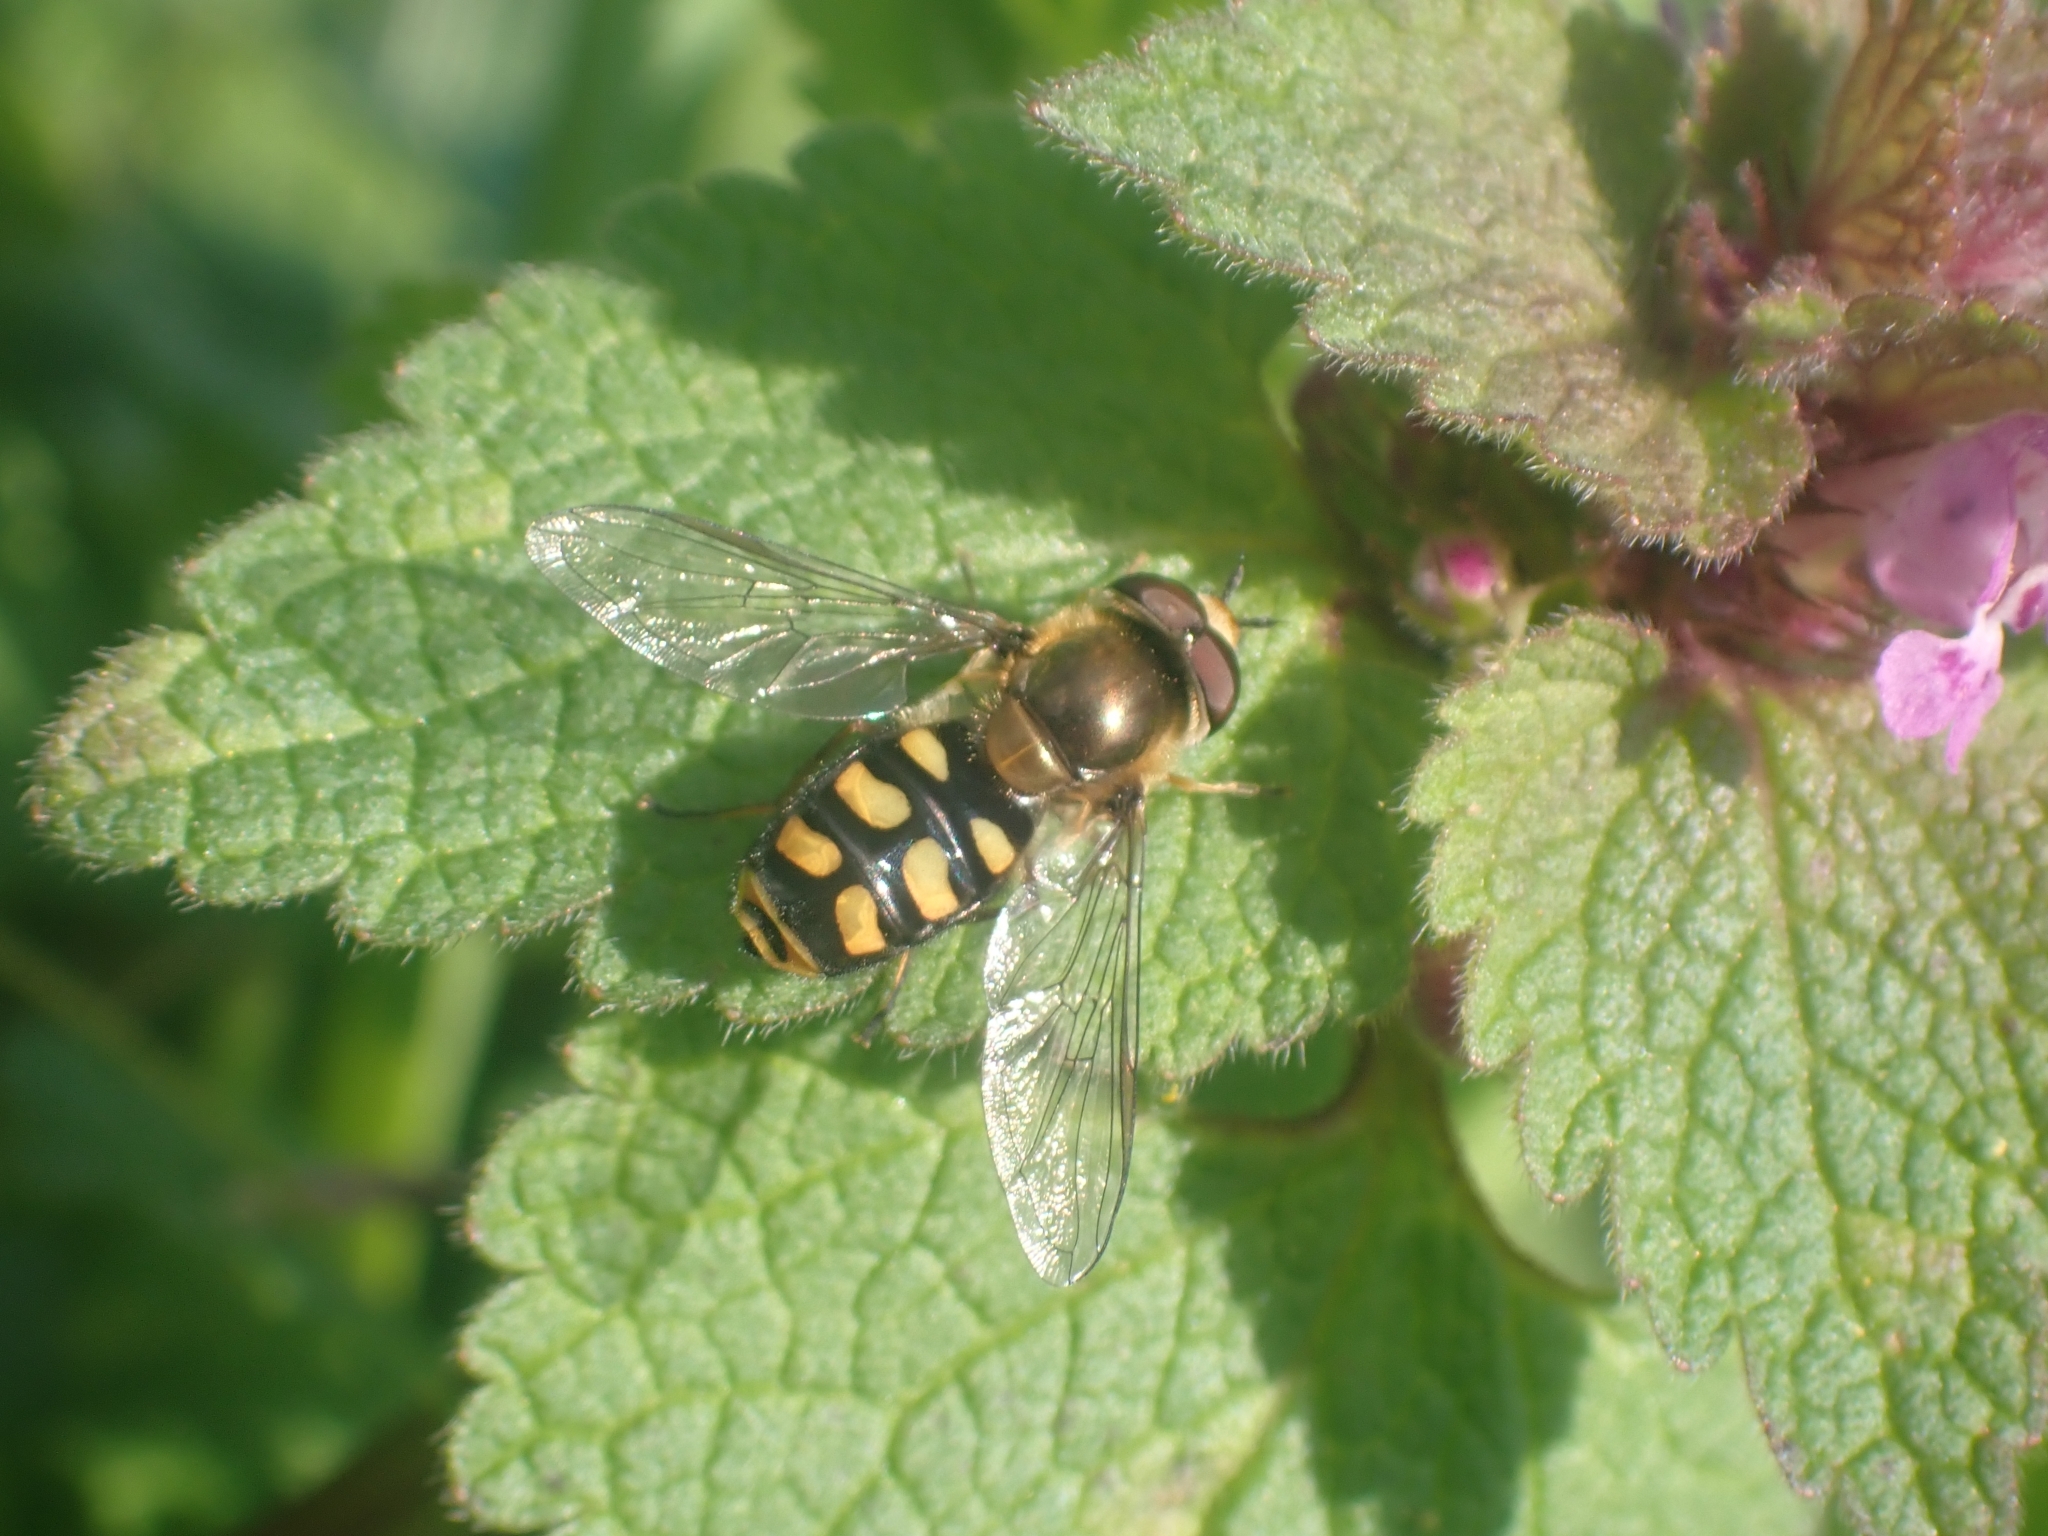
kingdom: Animalia
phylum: Arthropoda
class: Insecta
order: Diptera
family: Syrphidae
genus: Eupeodes
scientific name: Eupeodes
